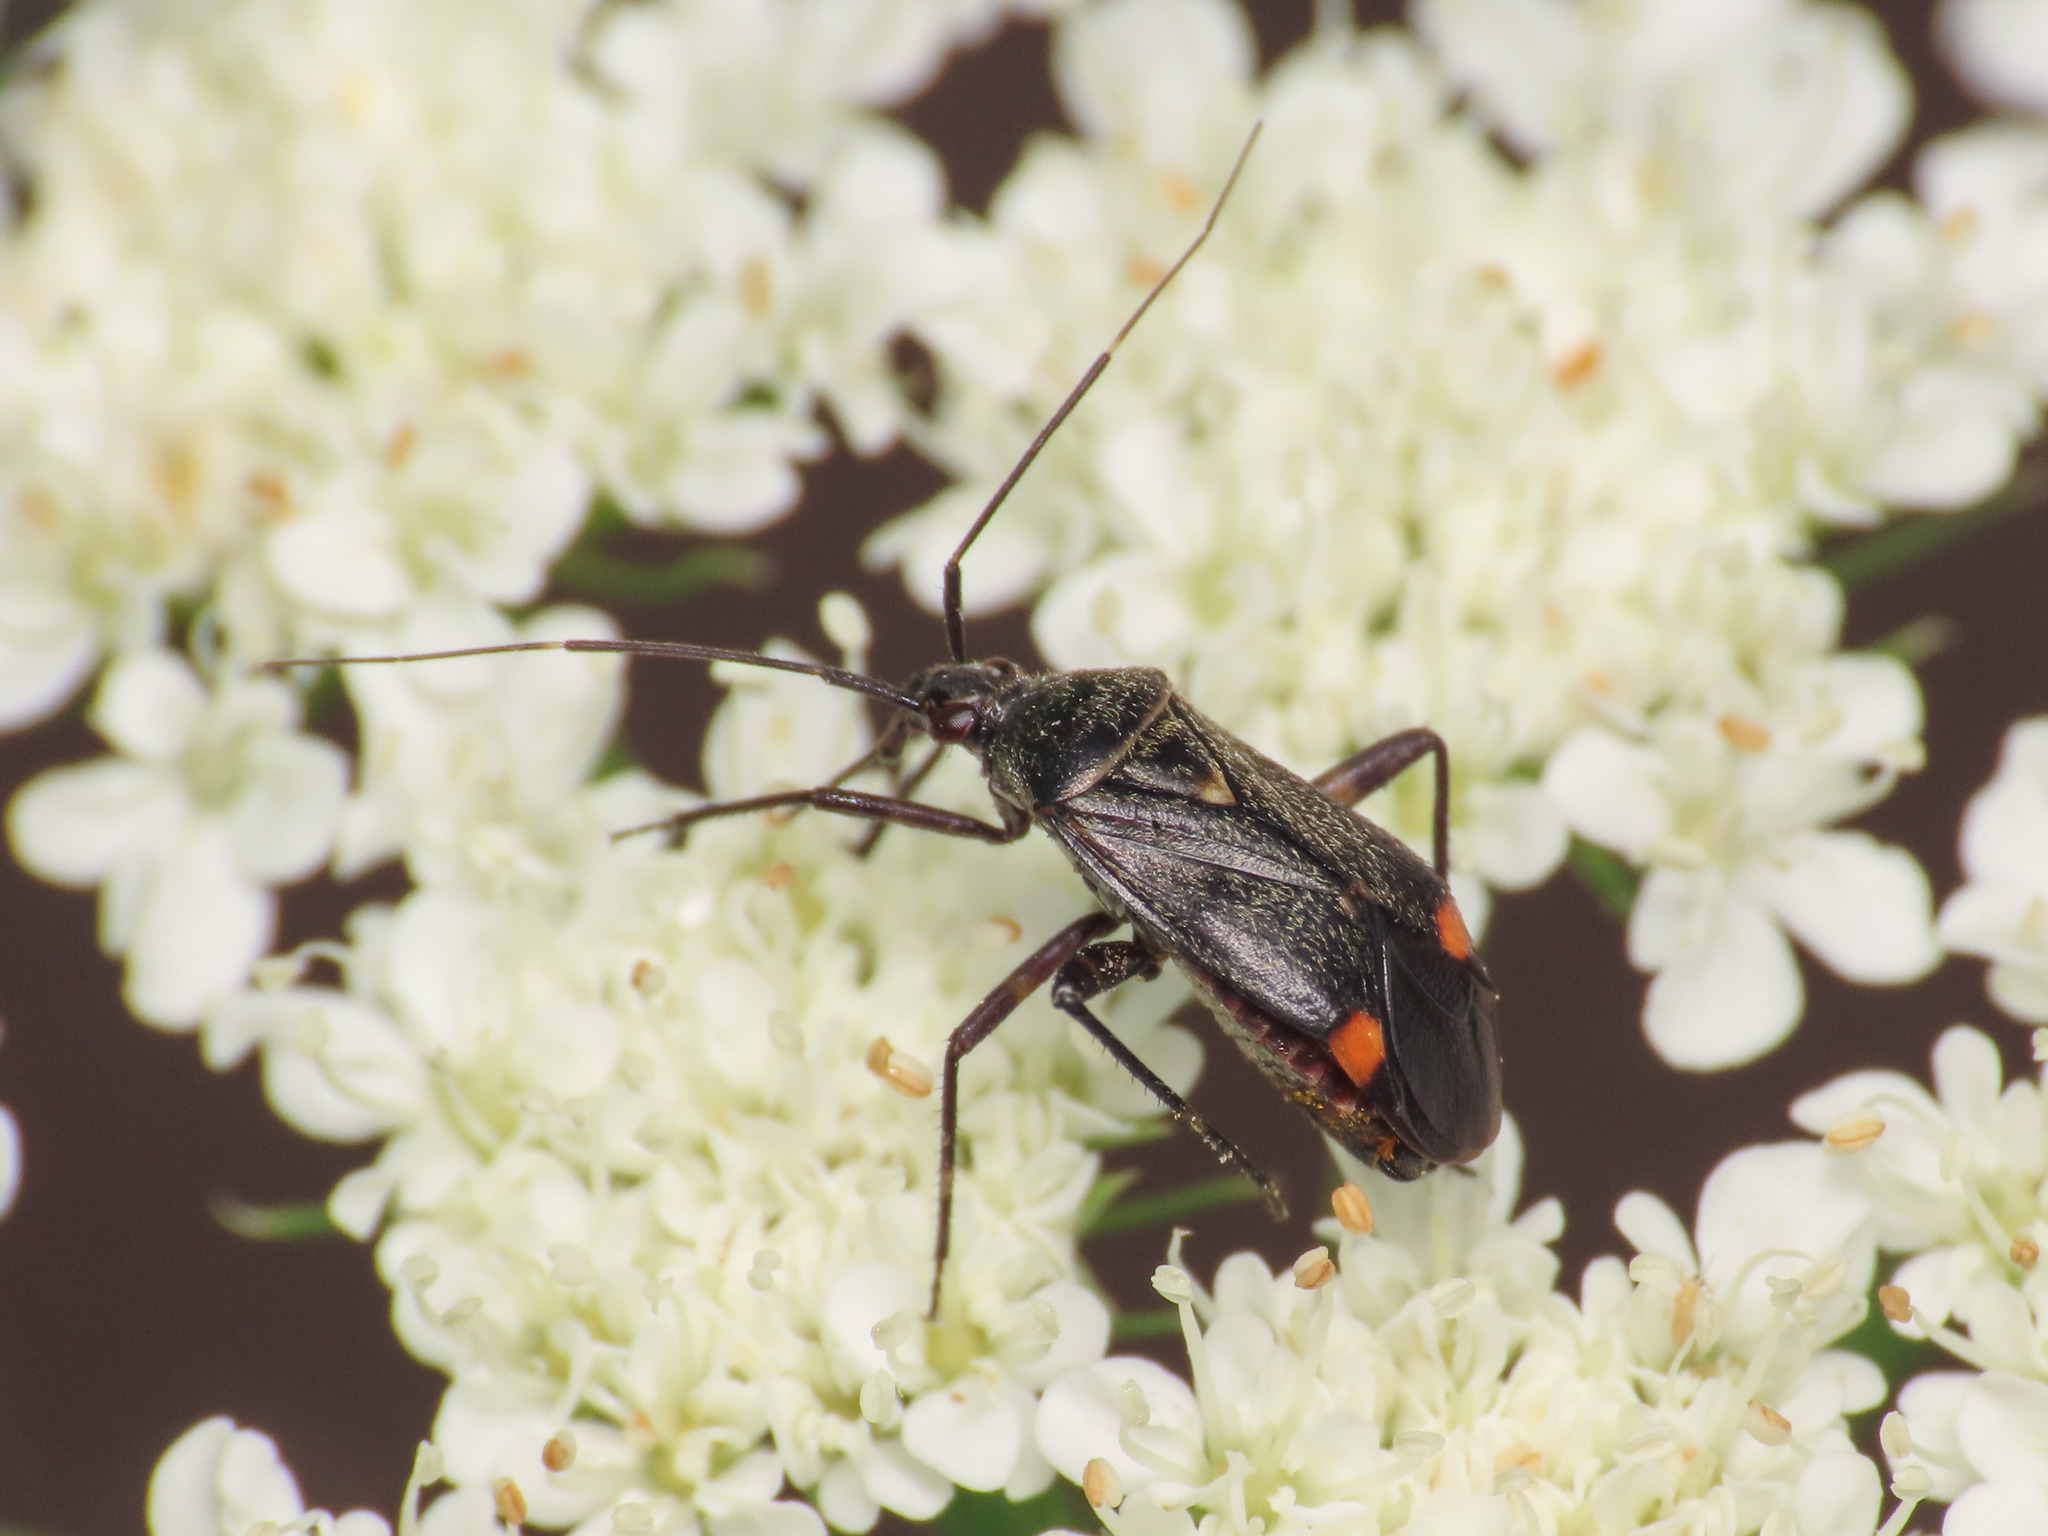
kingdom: Animalia
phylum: Arthropoda
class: Insecta
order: Hemiptera
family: Miridae
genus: Closterotomus
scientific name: Closterotomus cinctipes
